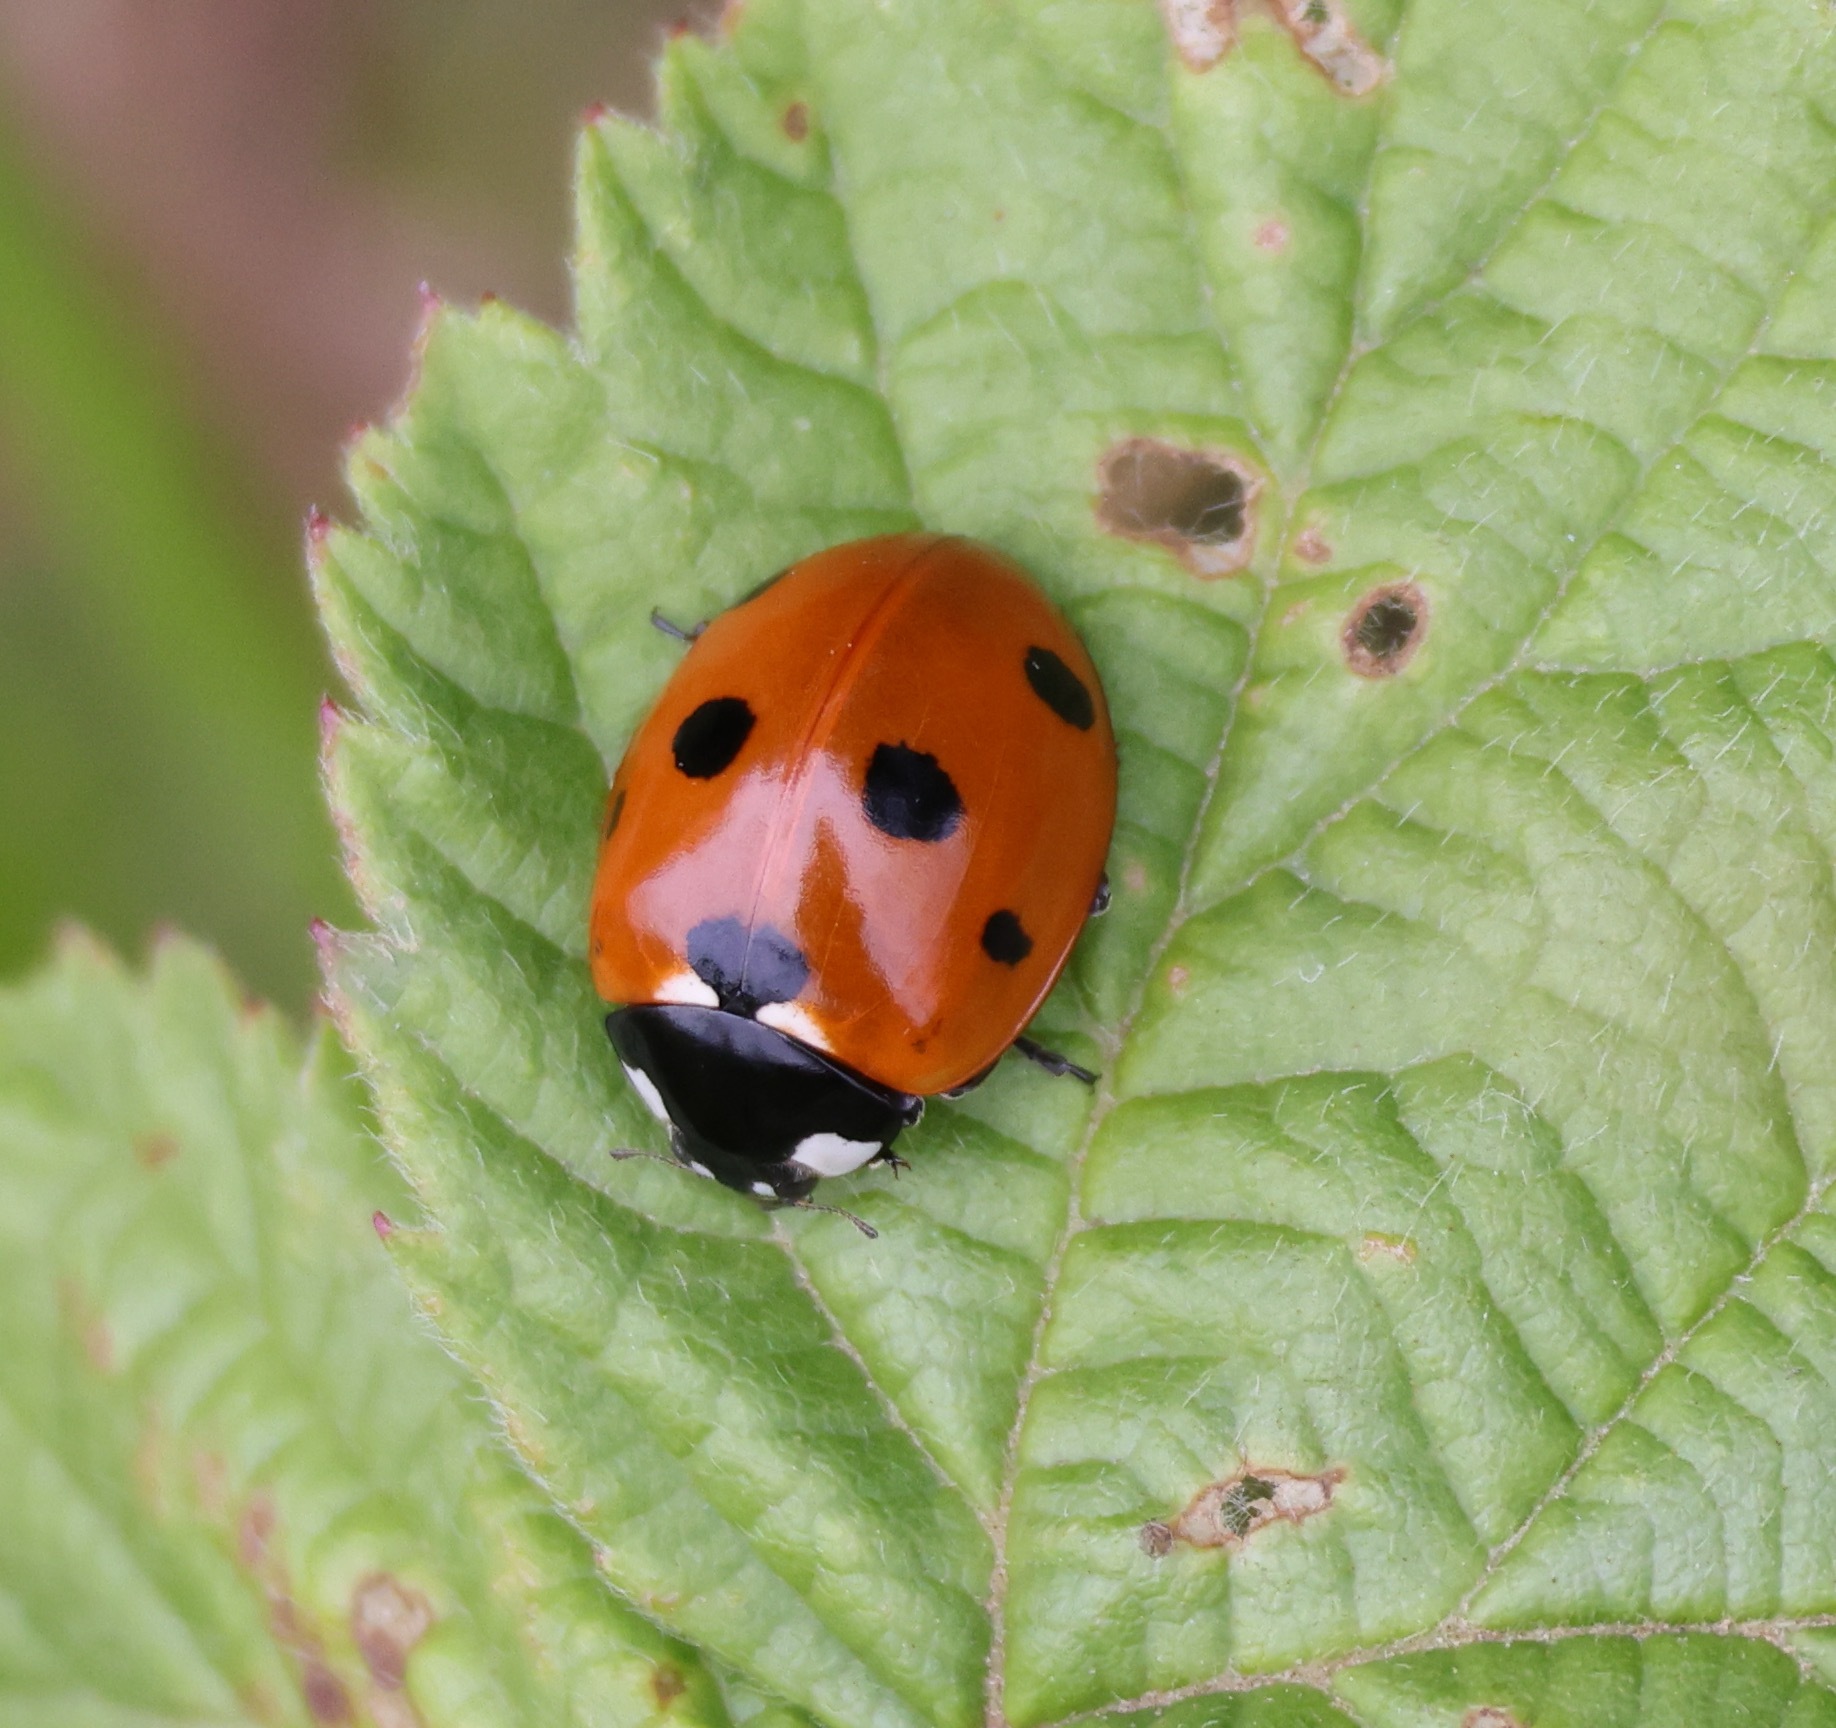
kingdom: Animalia
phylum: Arthropoda
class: Insecta
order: Coleoptera
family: Coccinellidae
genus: Coccinella
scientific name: Coccinella septempunctata
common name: Sevenspotted lady beetle
